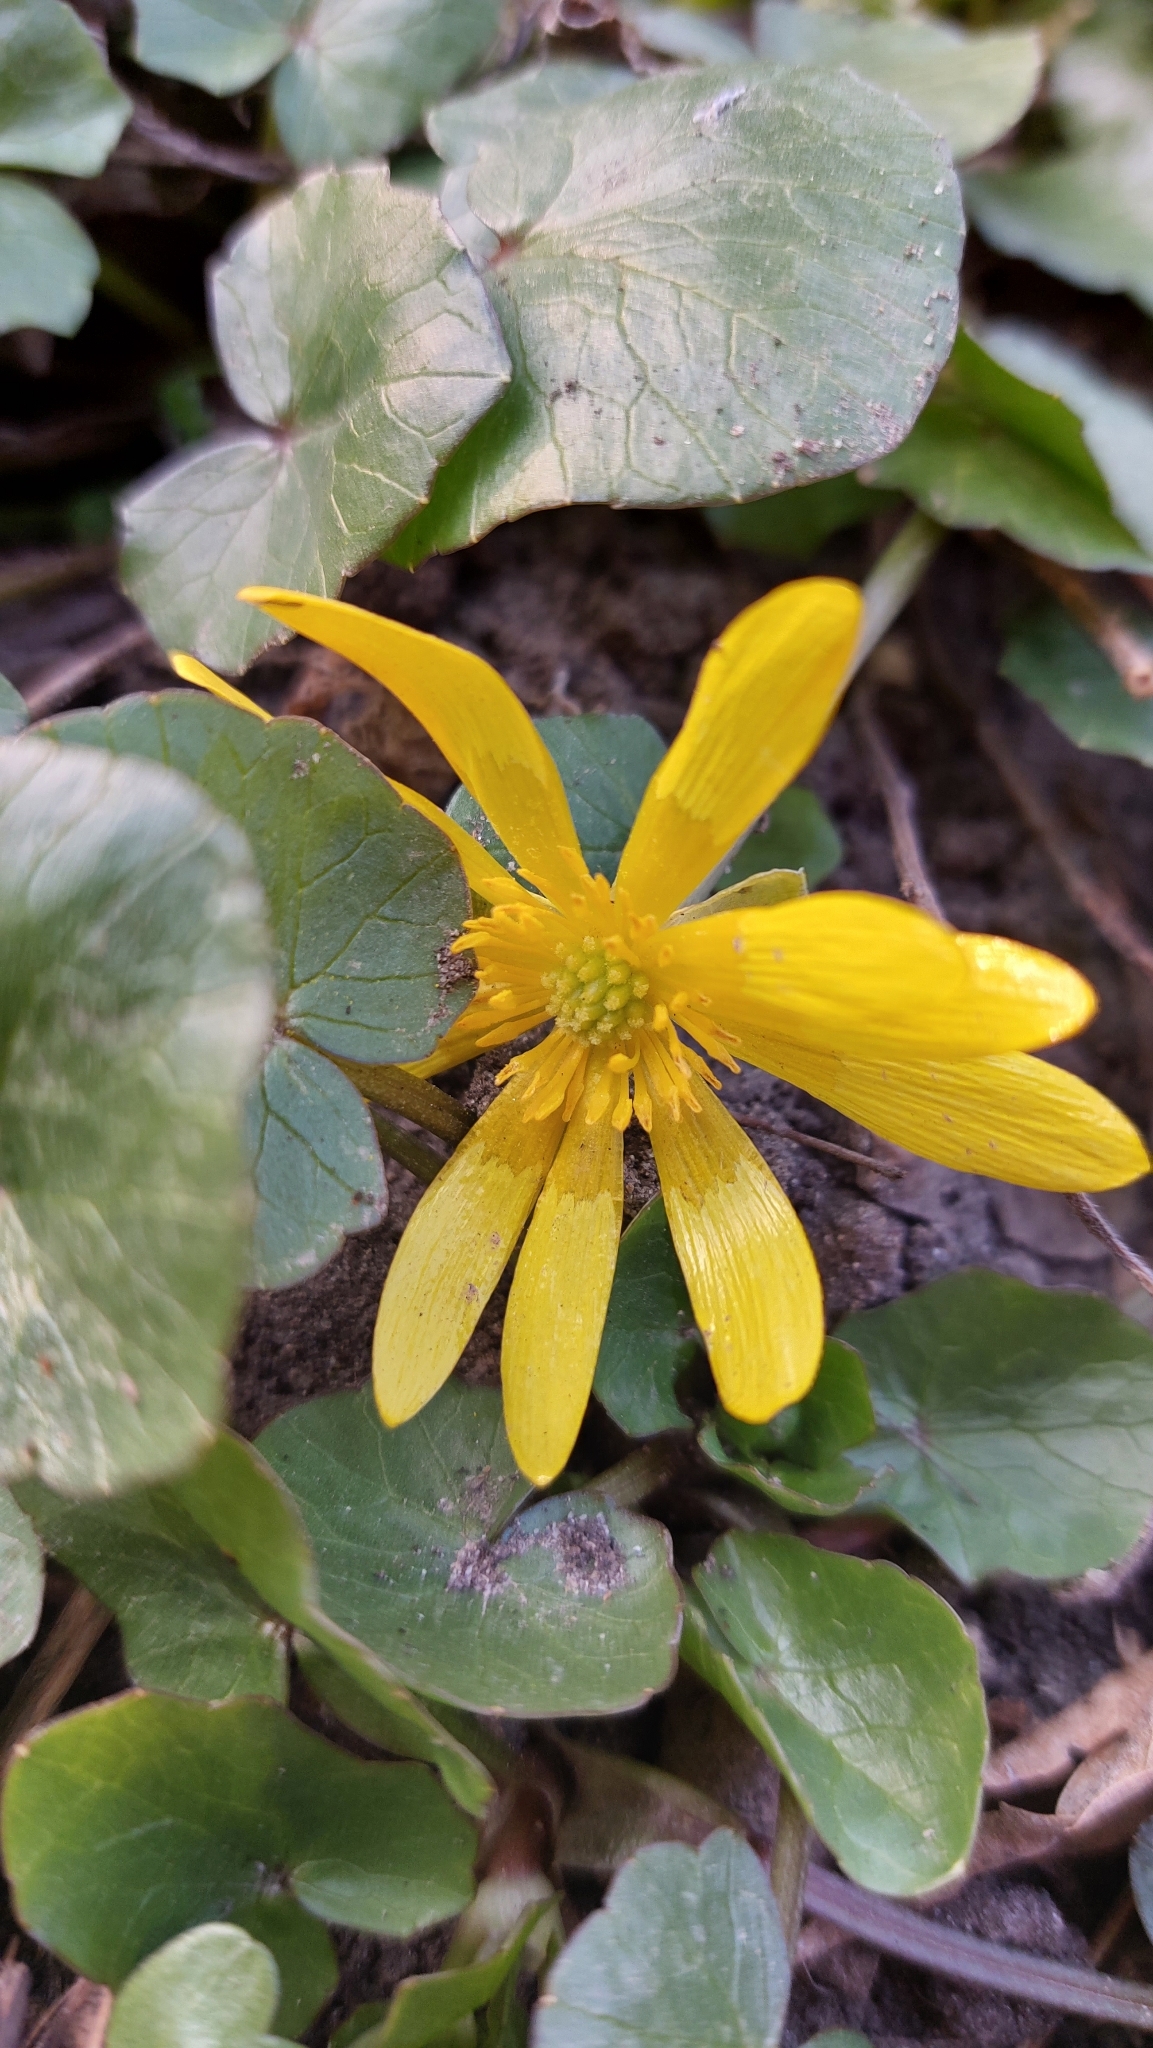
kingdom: Plantae
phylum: Tracheophyta
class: Magnoliopsida
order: Ranunculales
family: Ranunculaceae
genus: Ficaria
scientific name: Ficaria verna
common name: Lesser celandine
